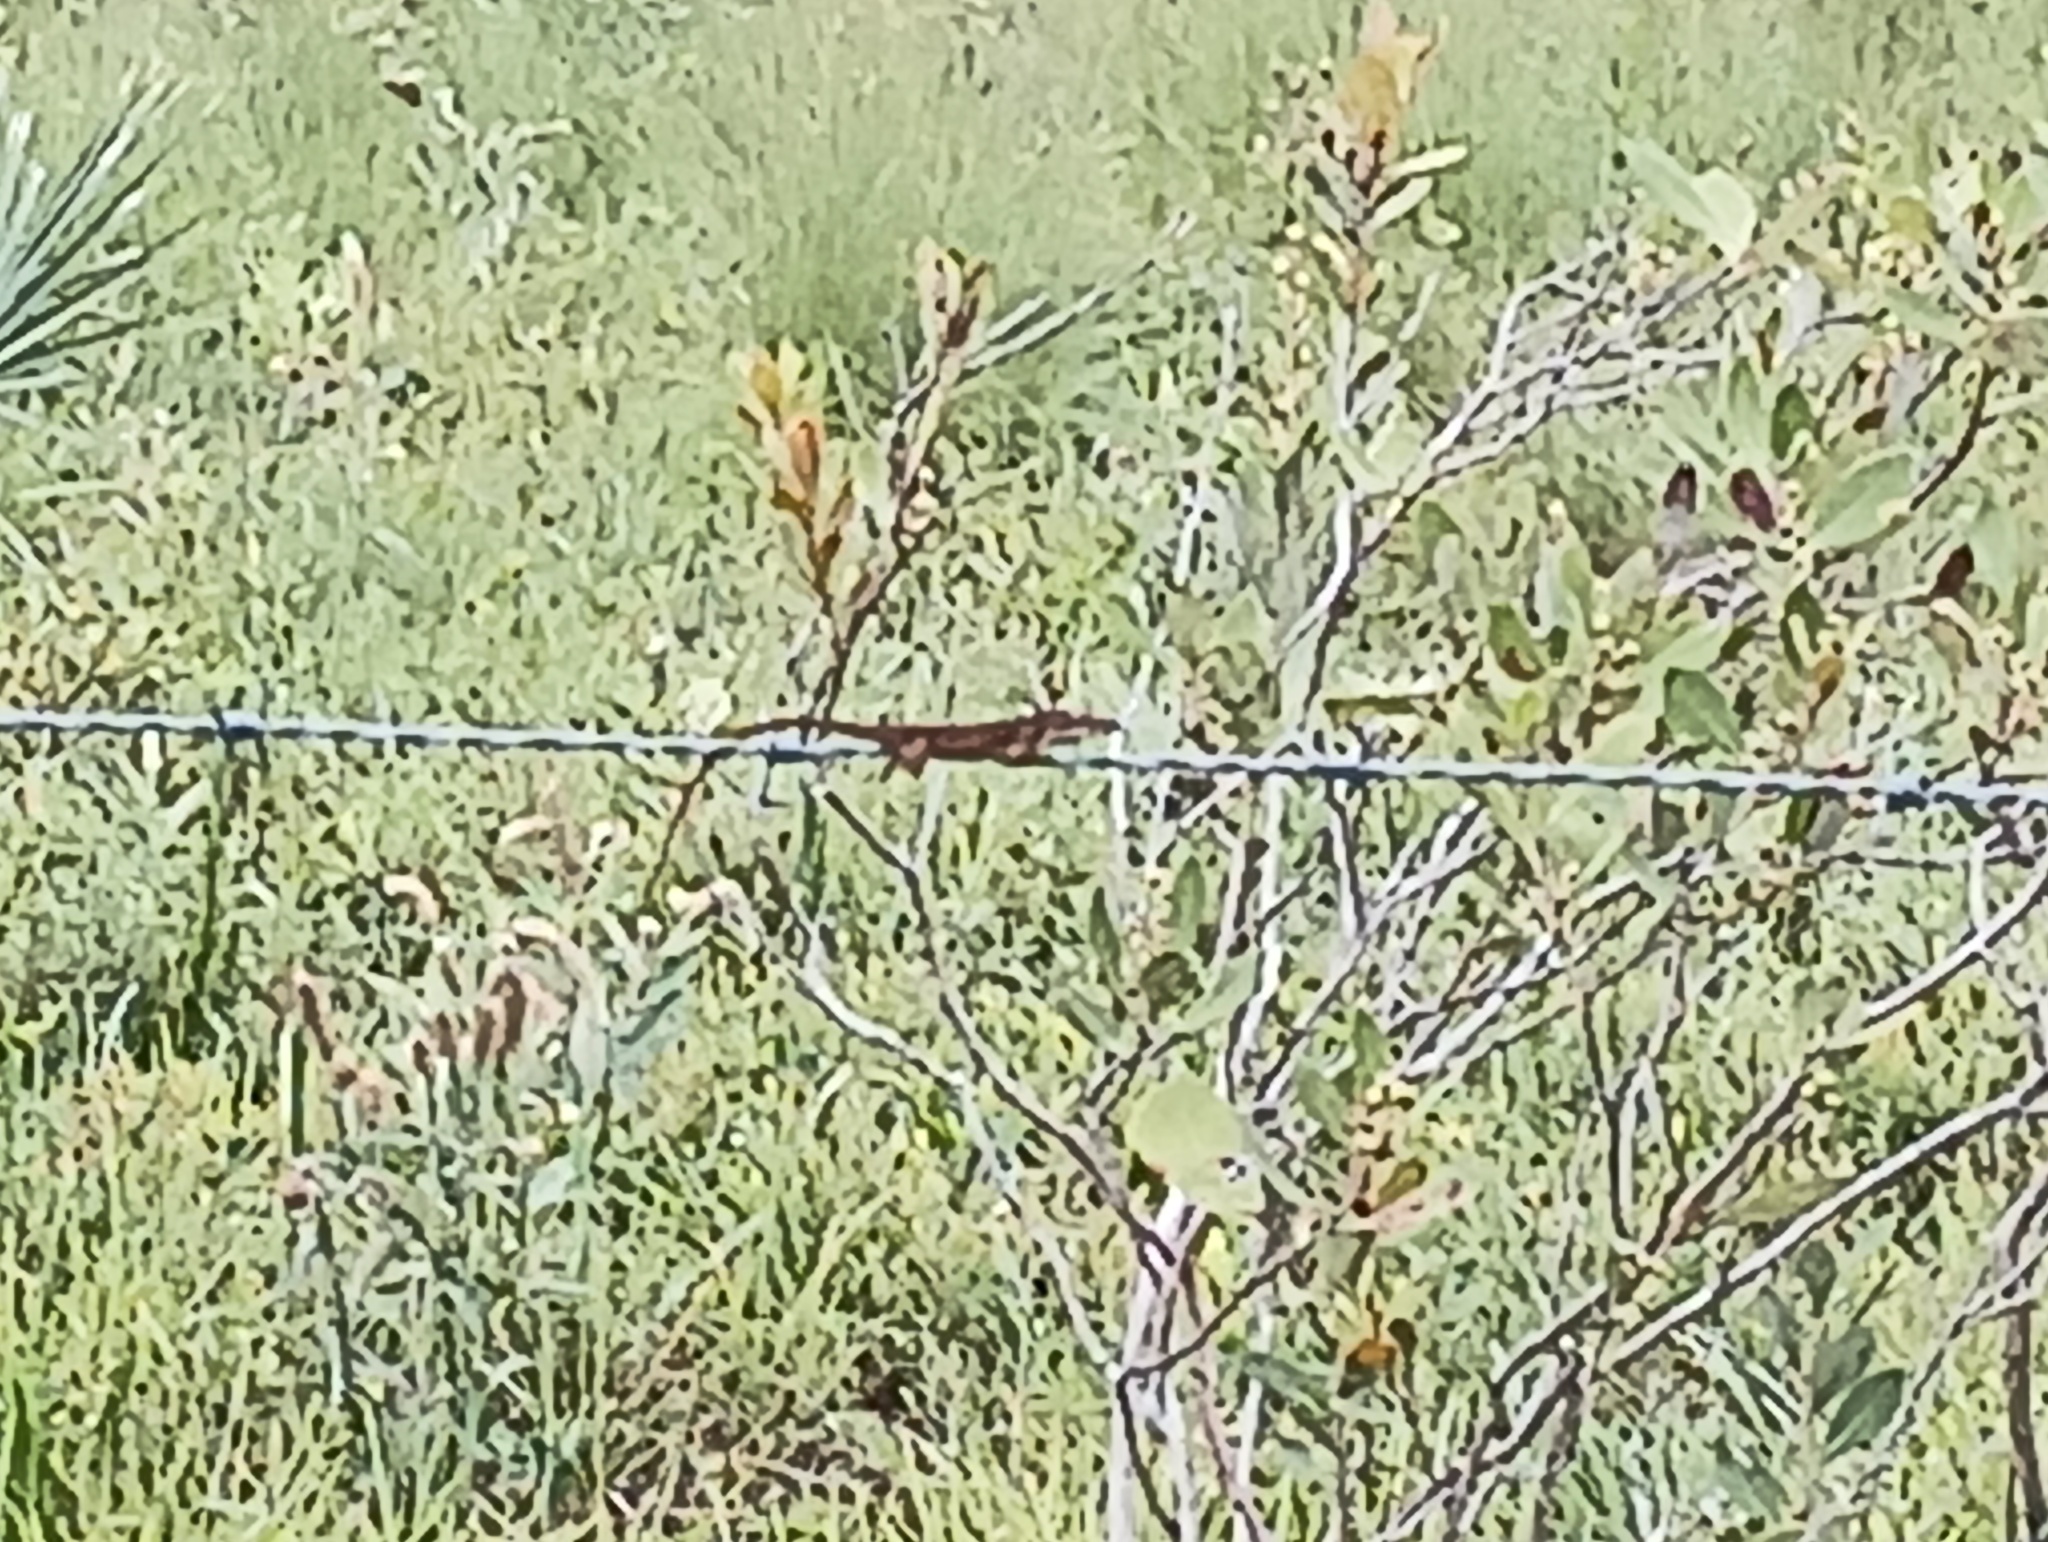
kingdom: Animalia
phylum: Chordata
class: Squamata
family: Dactyloidae
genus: Anolis
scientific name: Anolis carolinensis
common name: Green anole
